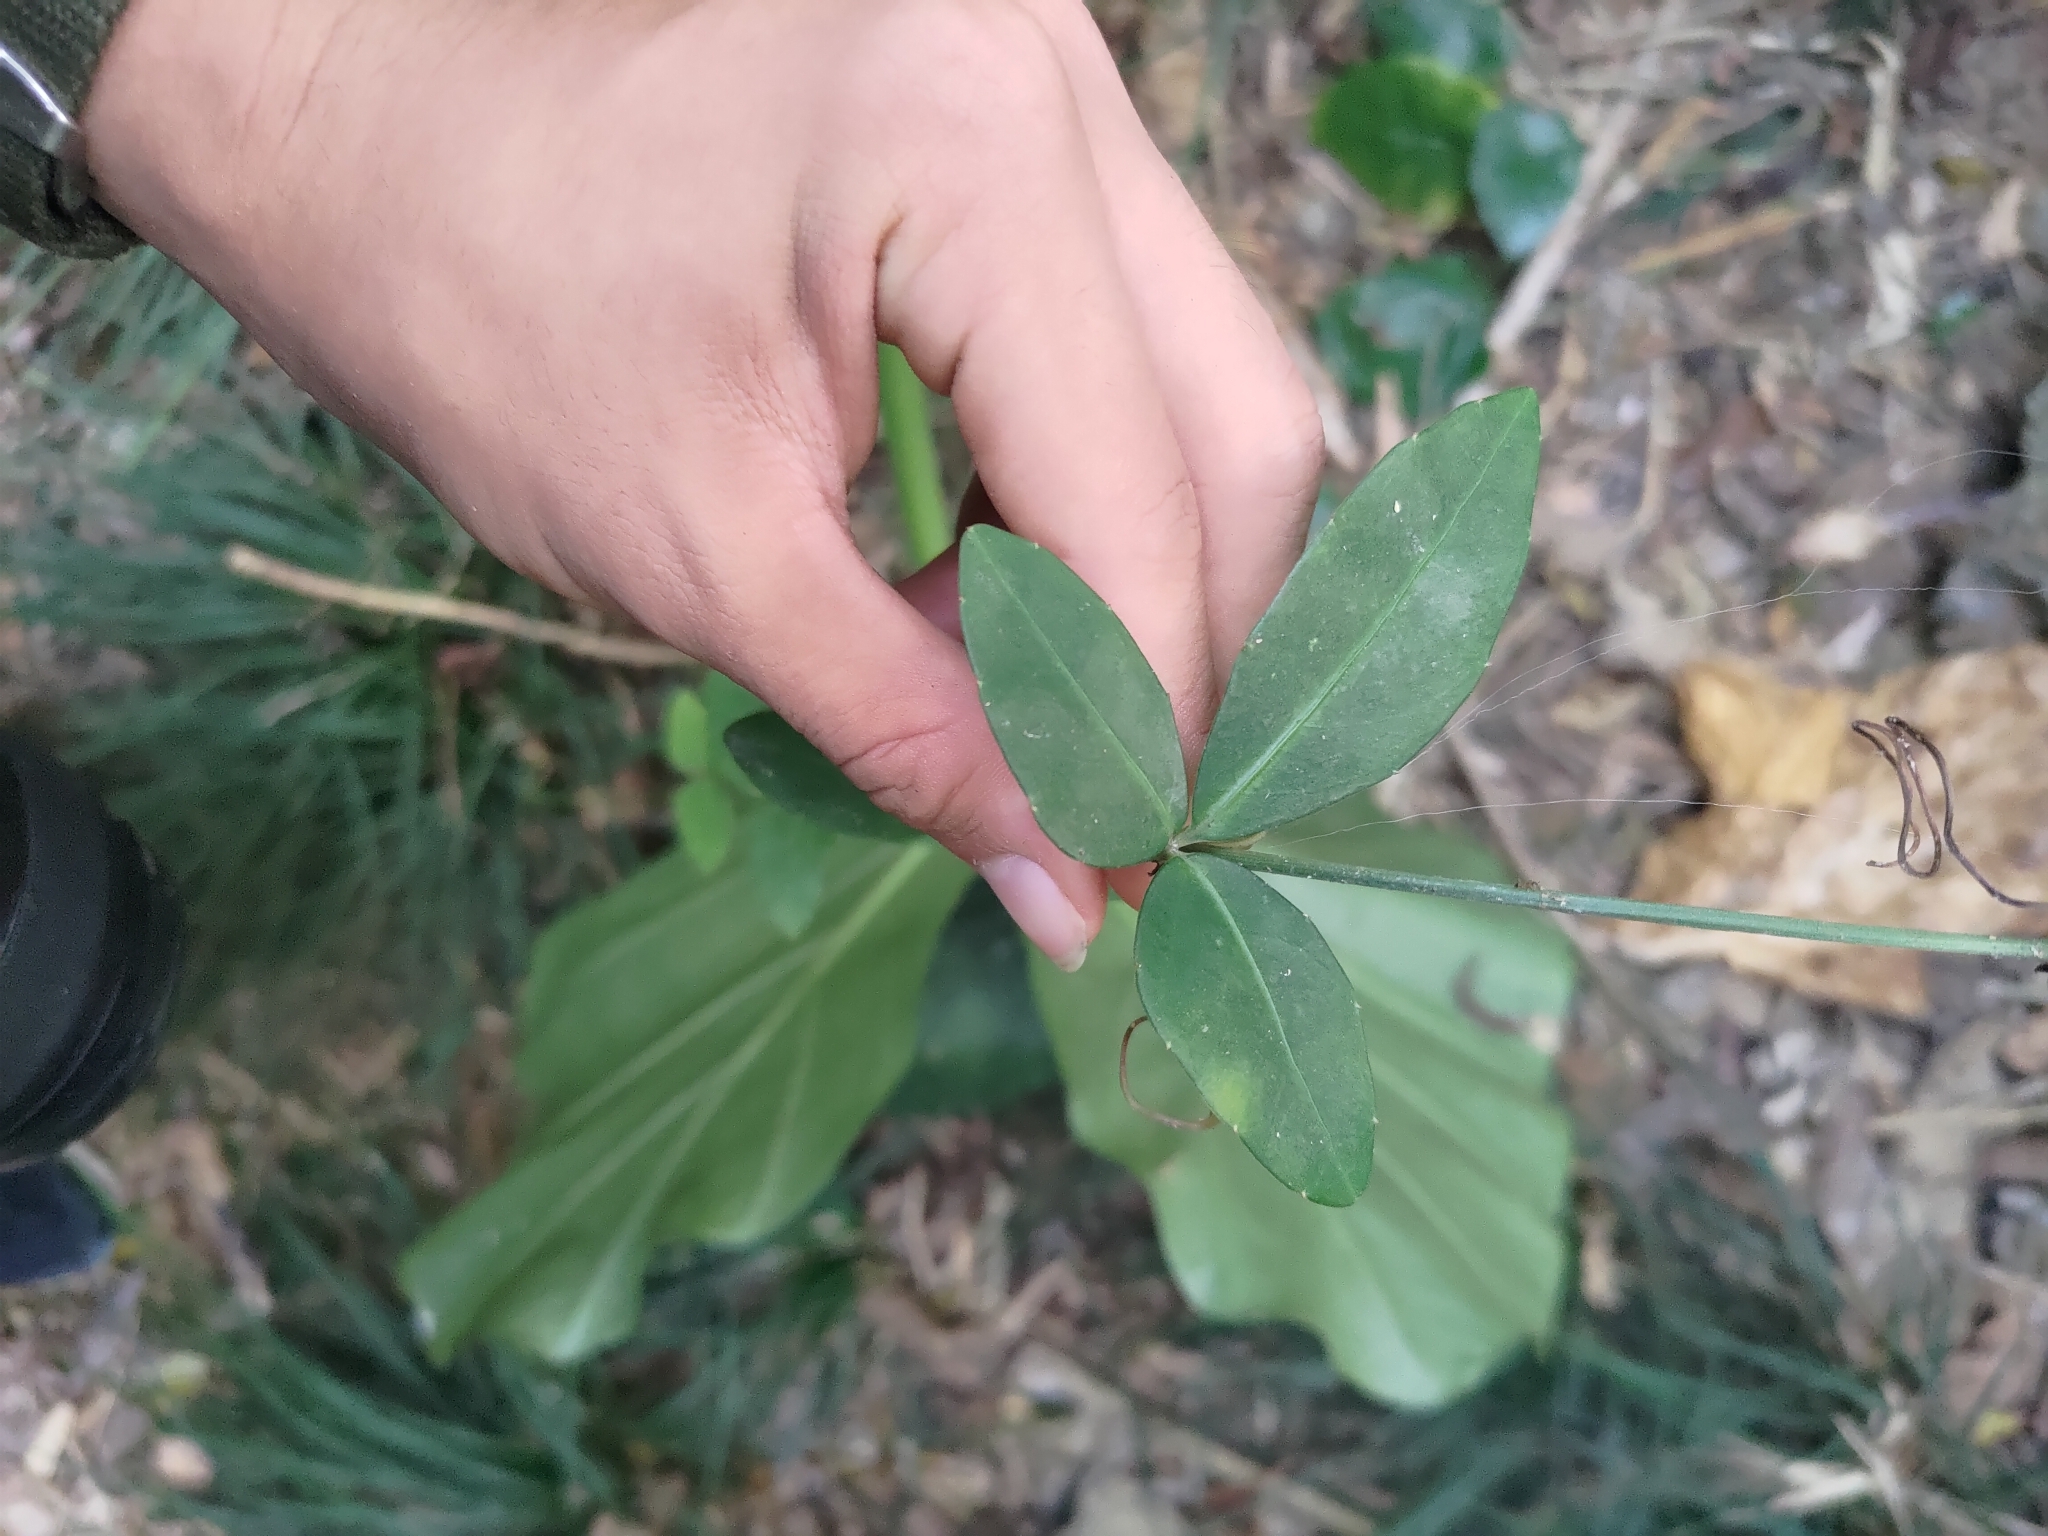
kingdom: Plantae
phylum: Tracheophyta
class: Magnoliopsida
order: Vitales
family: Vitaceae
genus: Tetrastigma
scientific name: Tetrastigma formosanum
